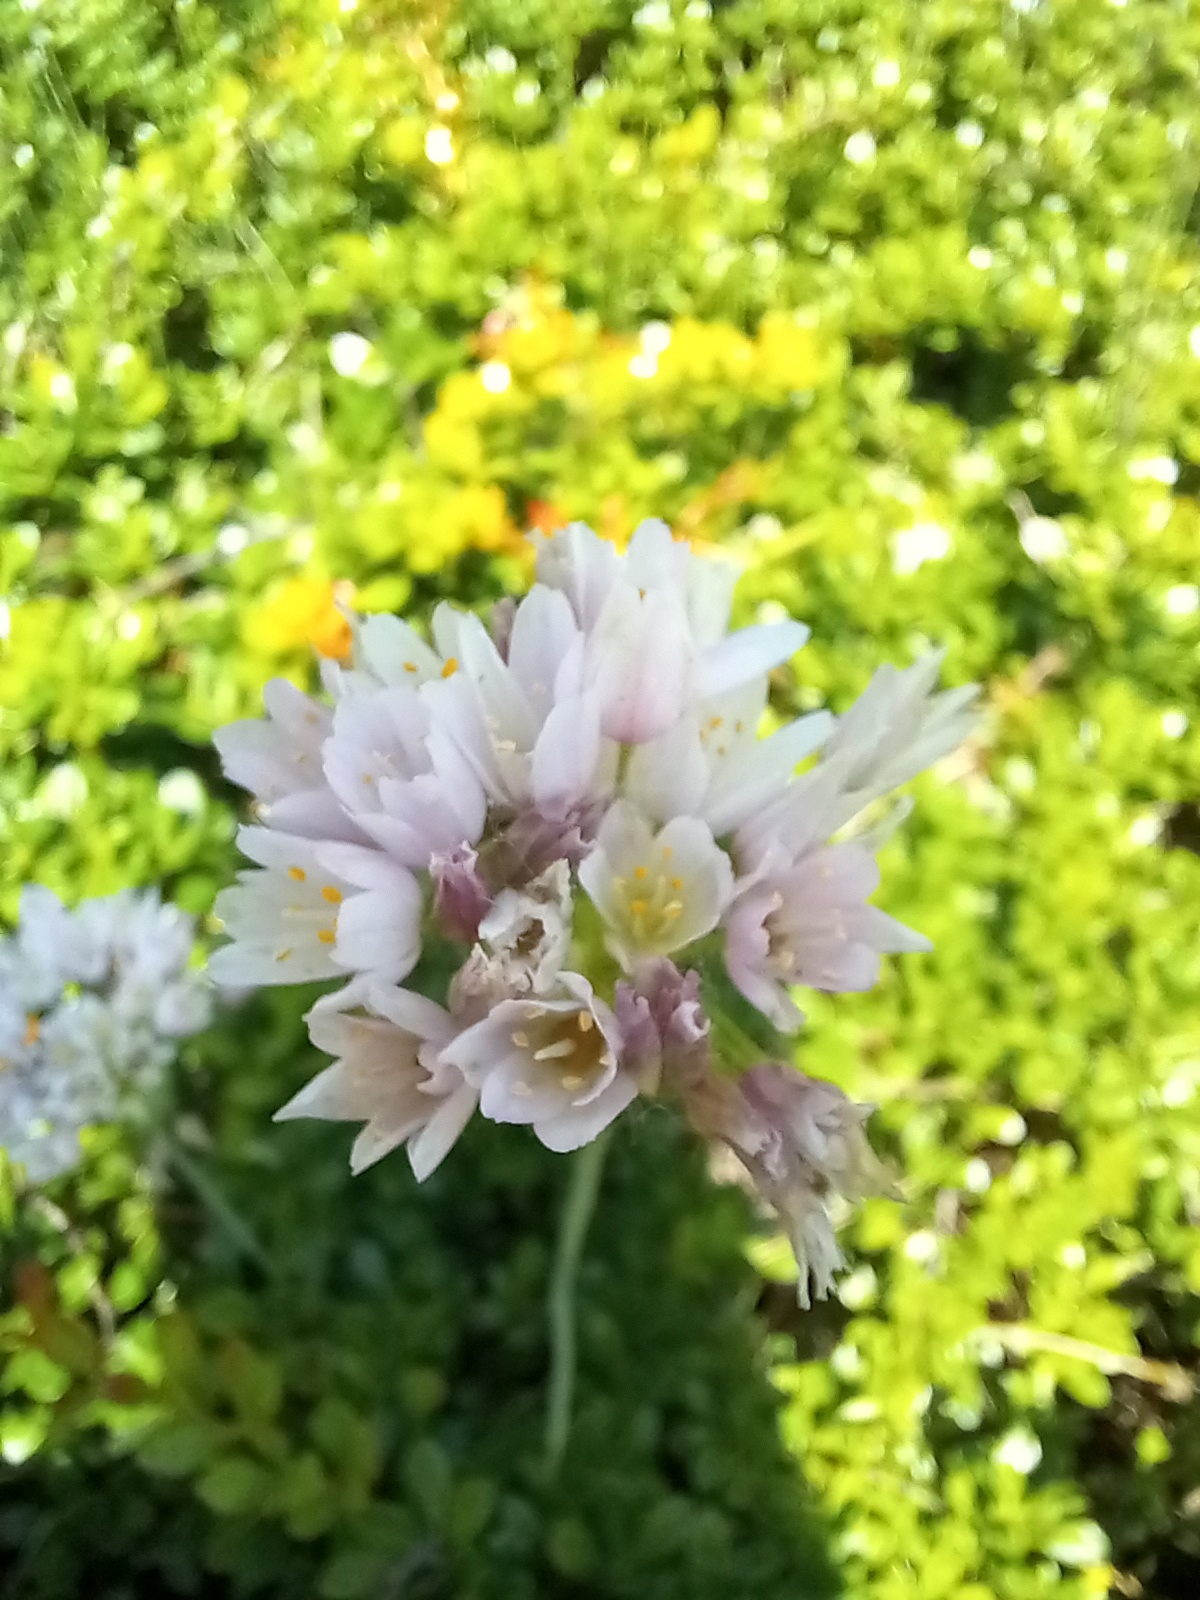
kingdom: Plantae
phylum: Tracheophyta
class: Liliopsida
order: Asparagales
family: Amaryllidaceae
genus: Allium
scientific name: Allium roseum
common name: Rosy garlic
